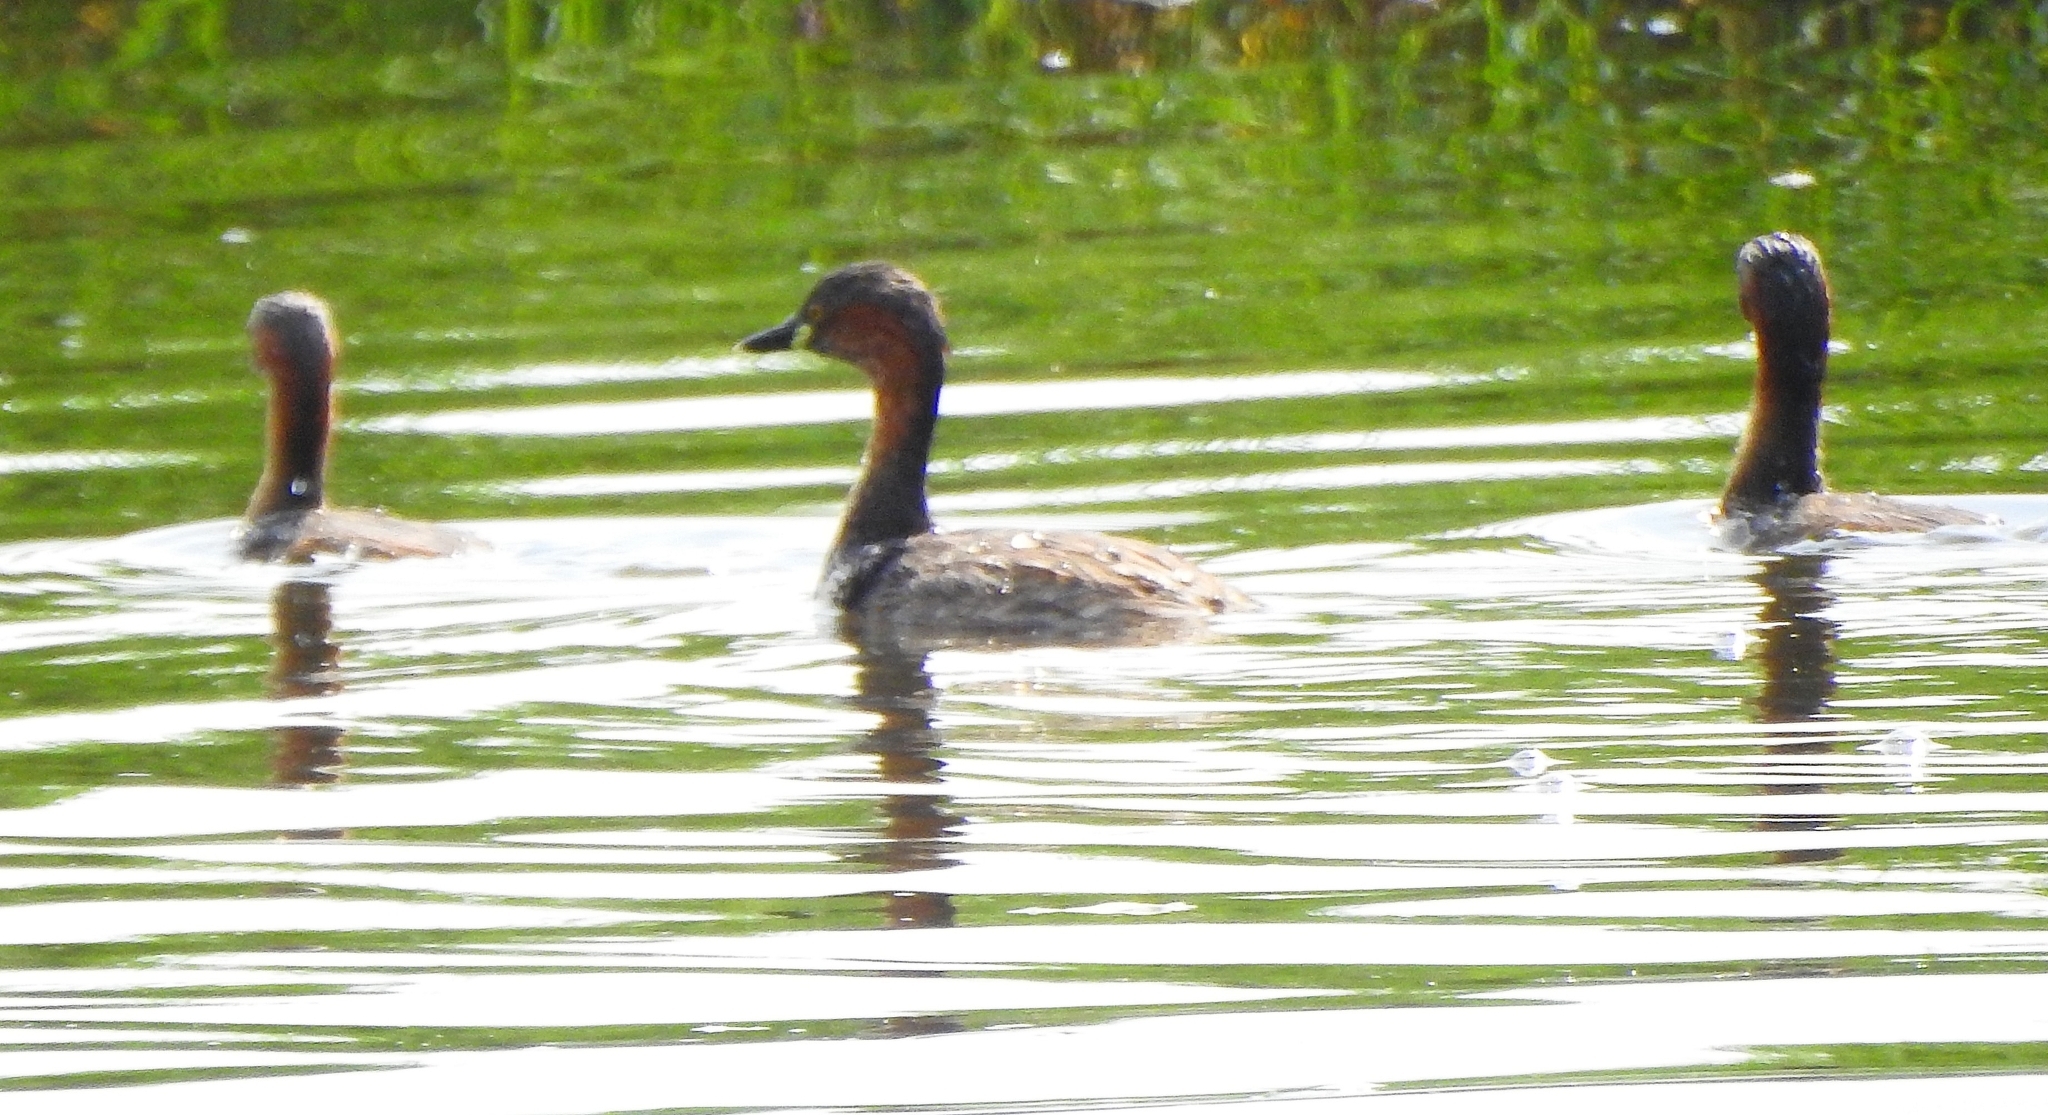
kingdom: Animalia
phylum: Chordata
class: Aves
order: Podicipediformes
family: Podicipedidae
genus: Tachybaptus
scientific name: Tachybaptus ruficollis
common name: Little grebe
